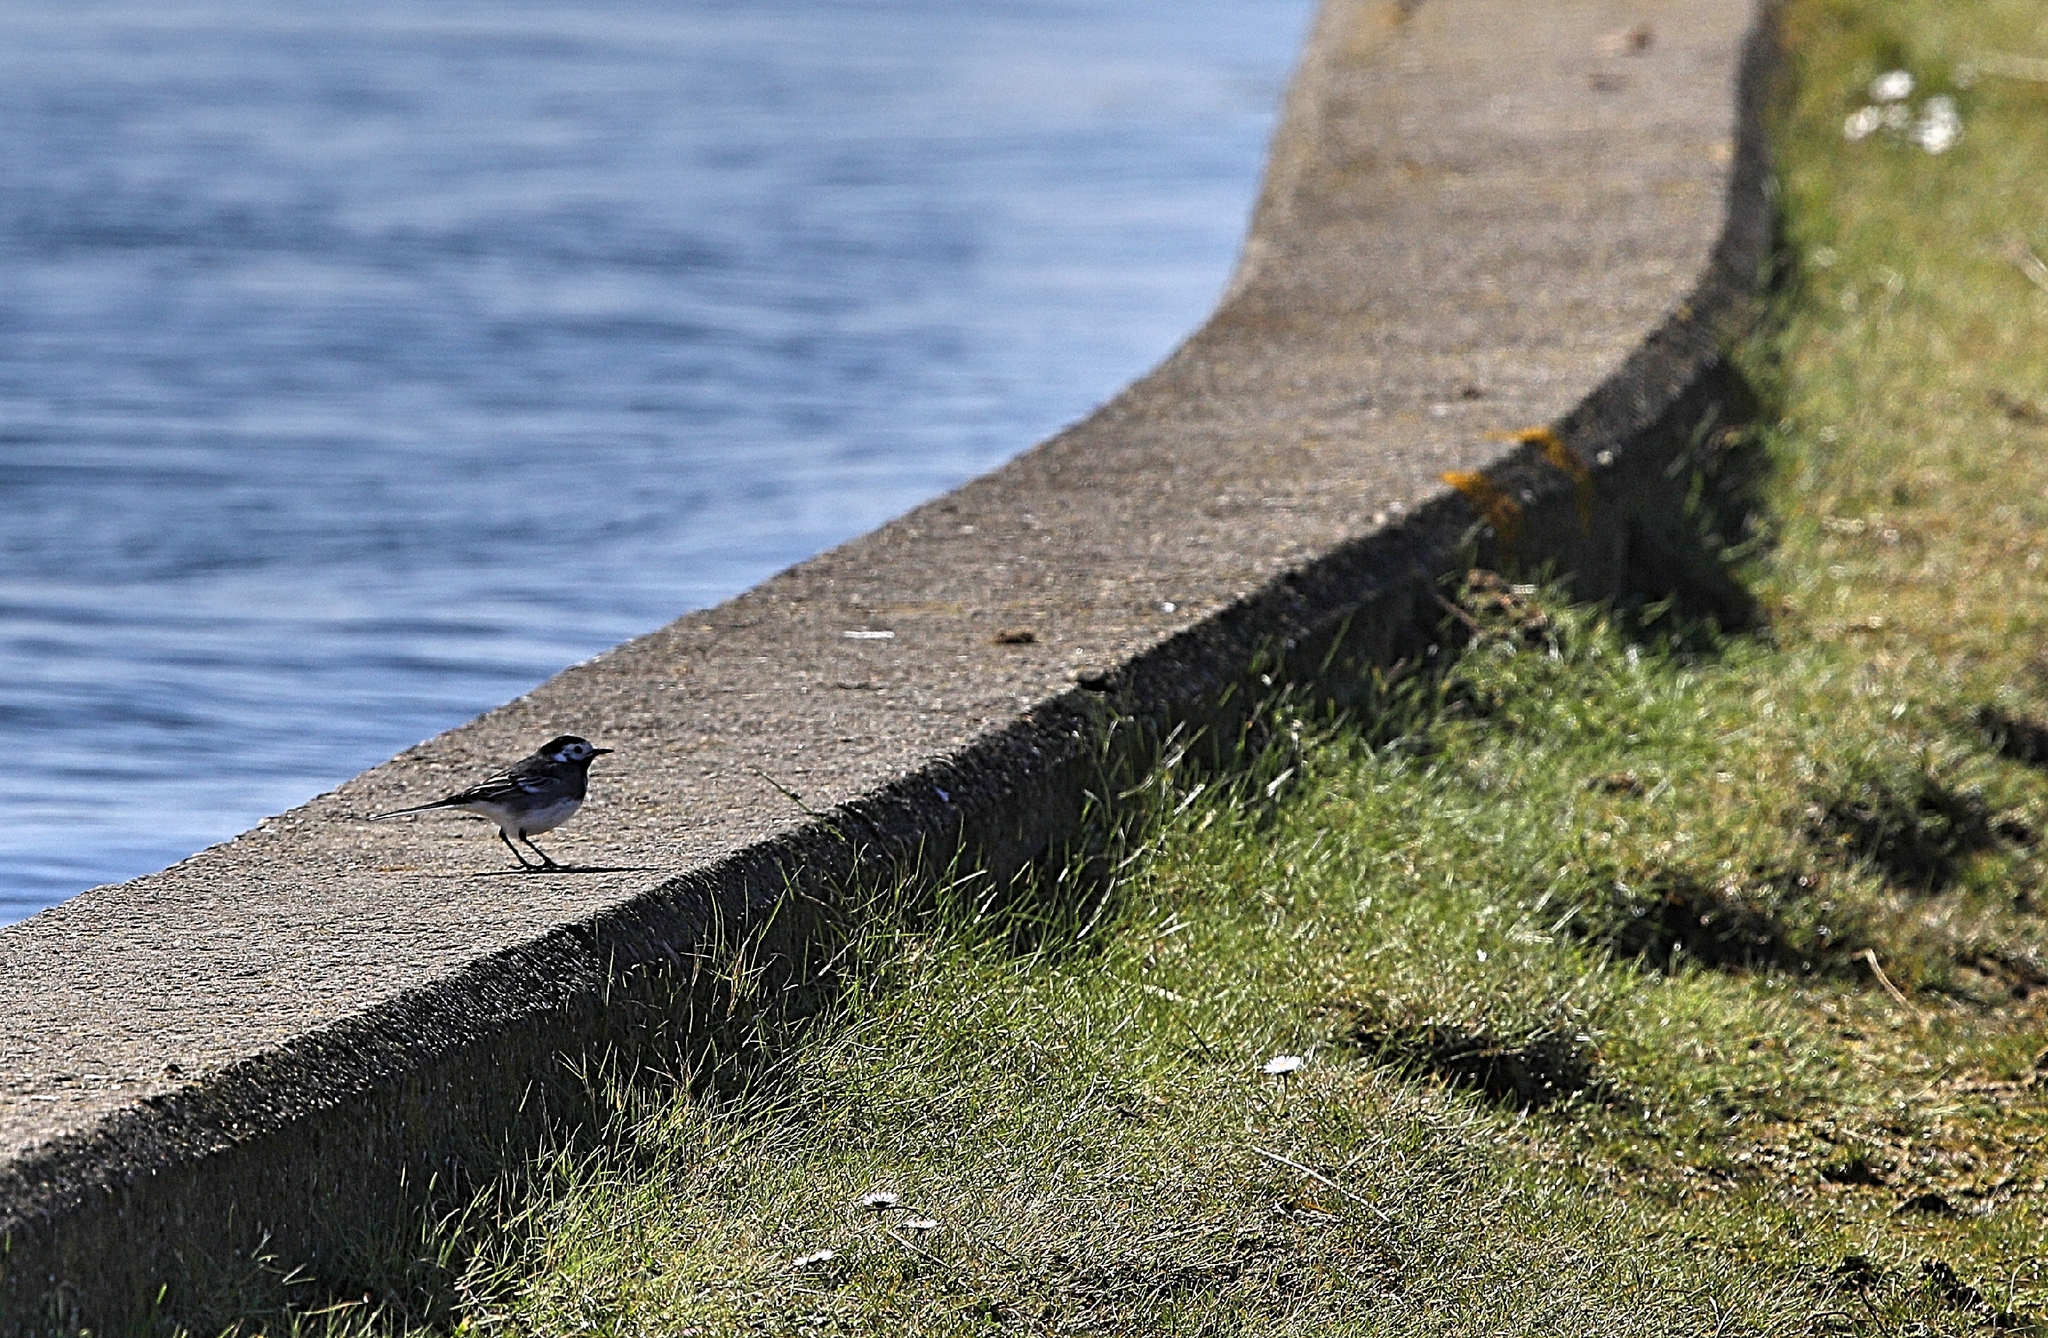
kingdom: Animalia
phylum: Chordata
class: Aves
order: Passeriformes
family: Motacillidae
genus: Motacilla
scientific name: Motacilla alba
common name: White wagtail
